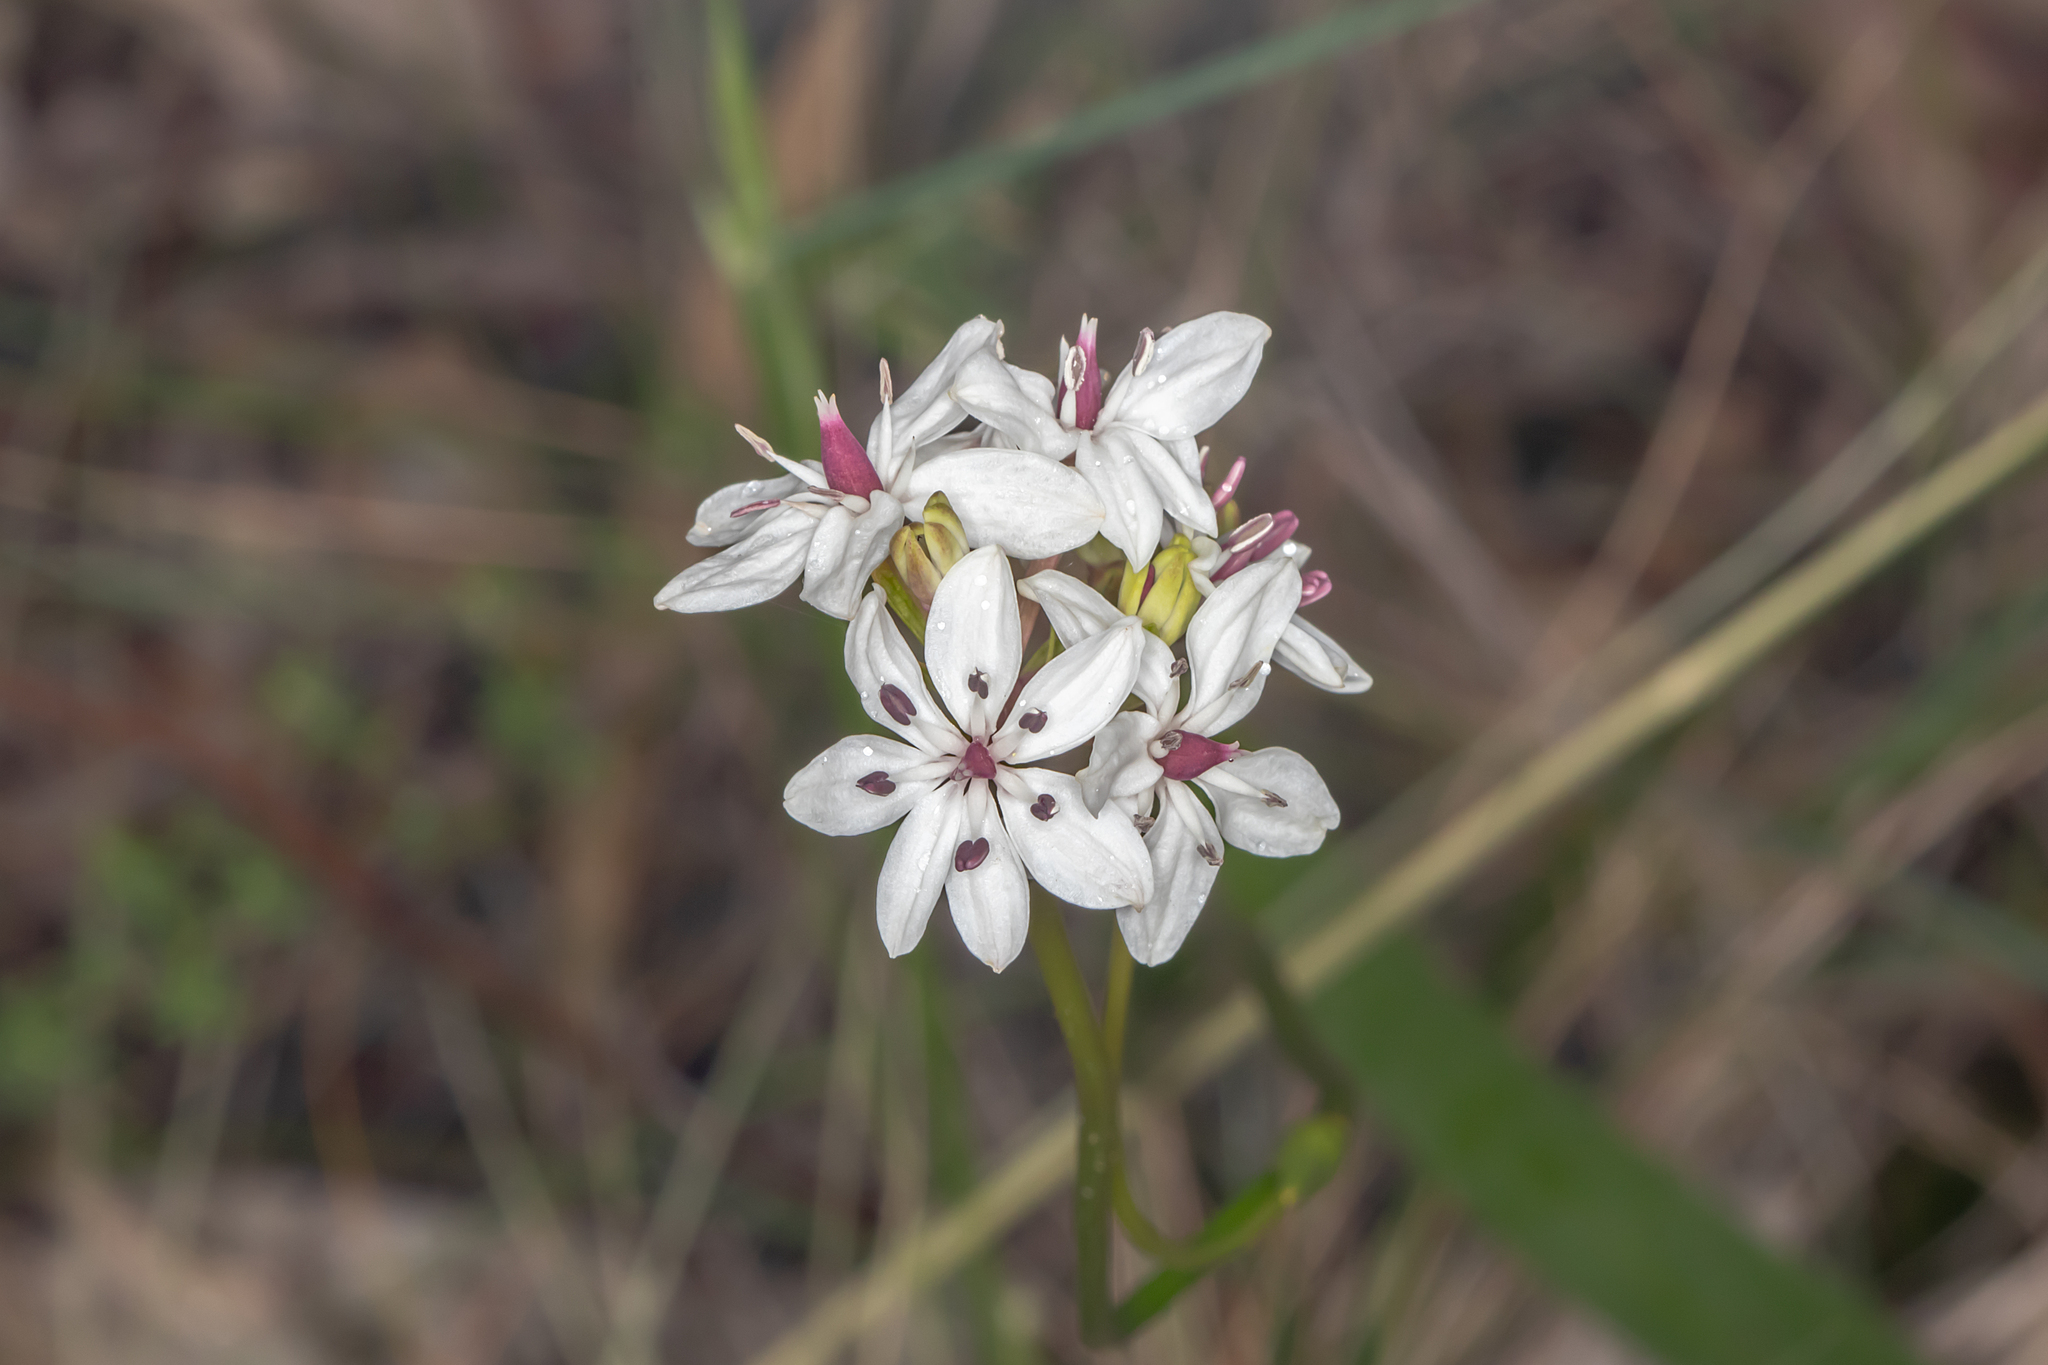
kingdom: Plantae
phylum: Tracheophyta
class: Liliopsida
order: Liliales
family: Colchicaceae
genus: Burchardia
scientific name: Burchardia umbellata
